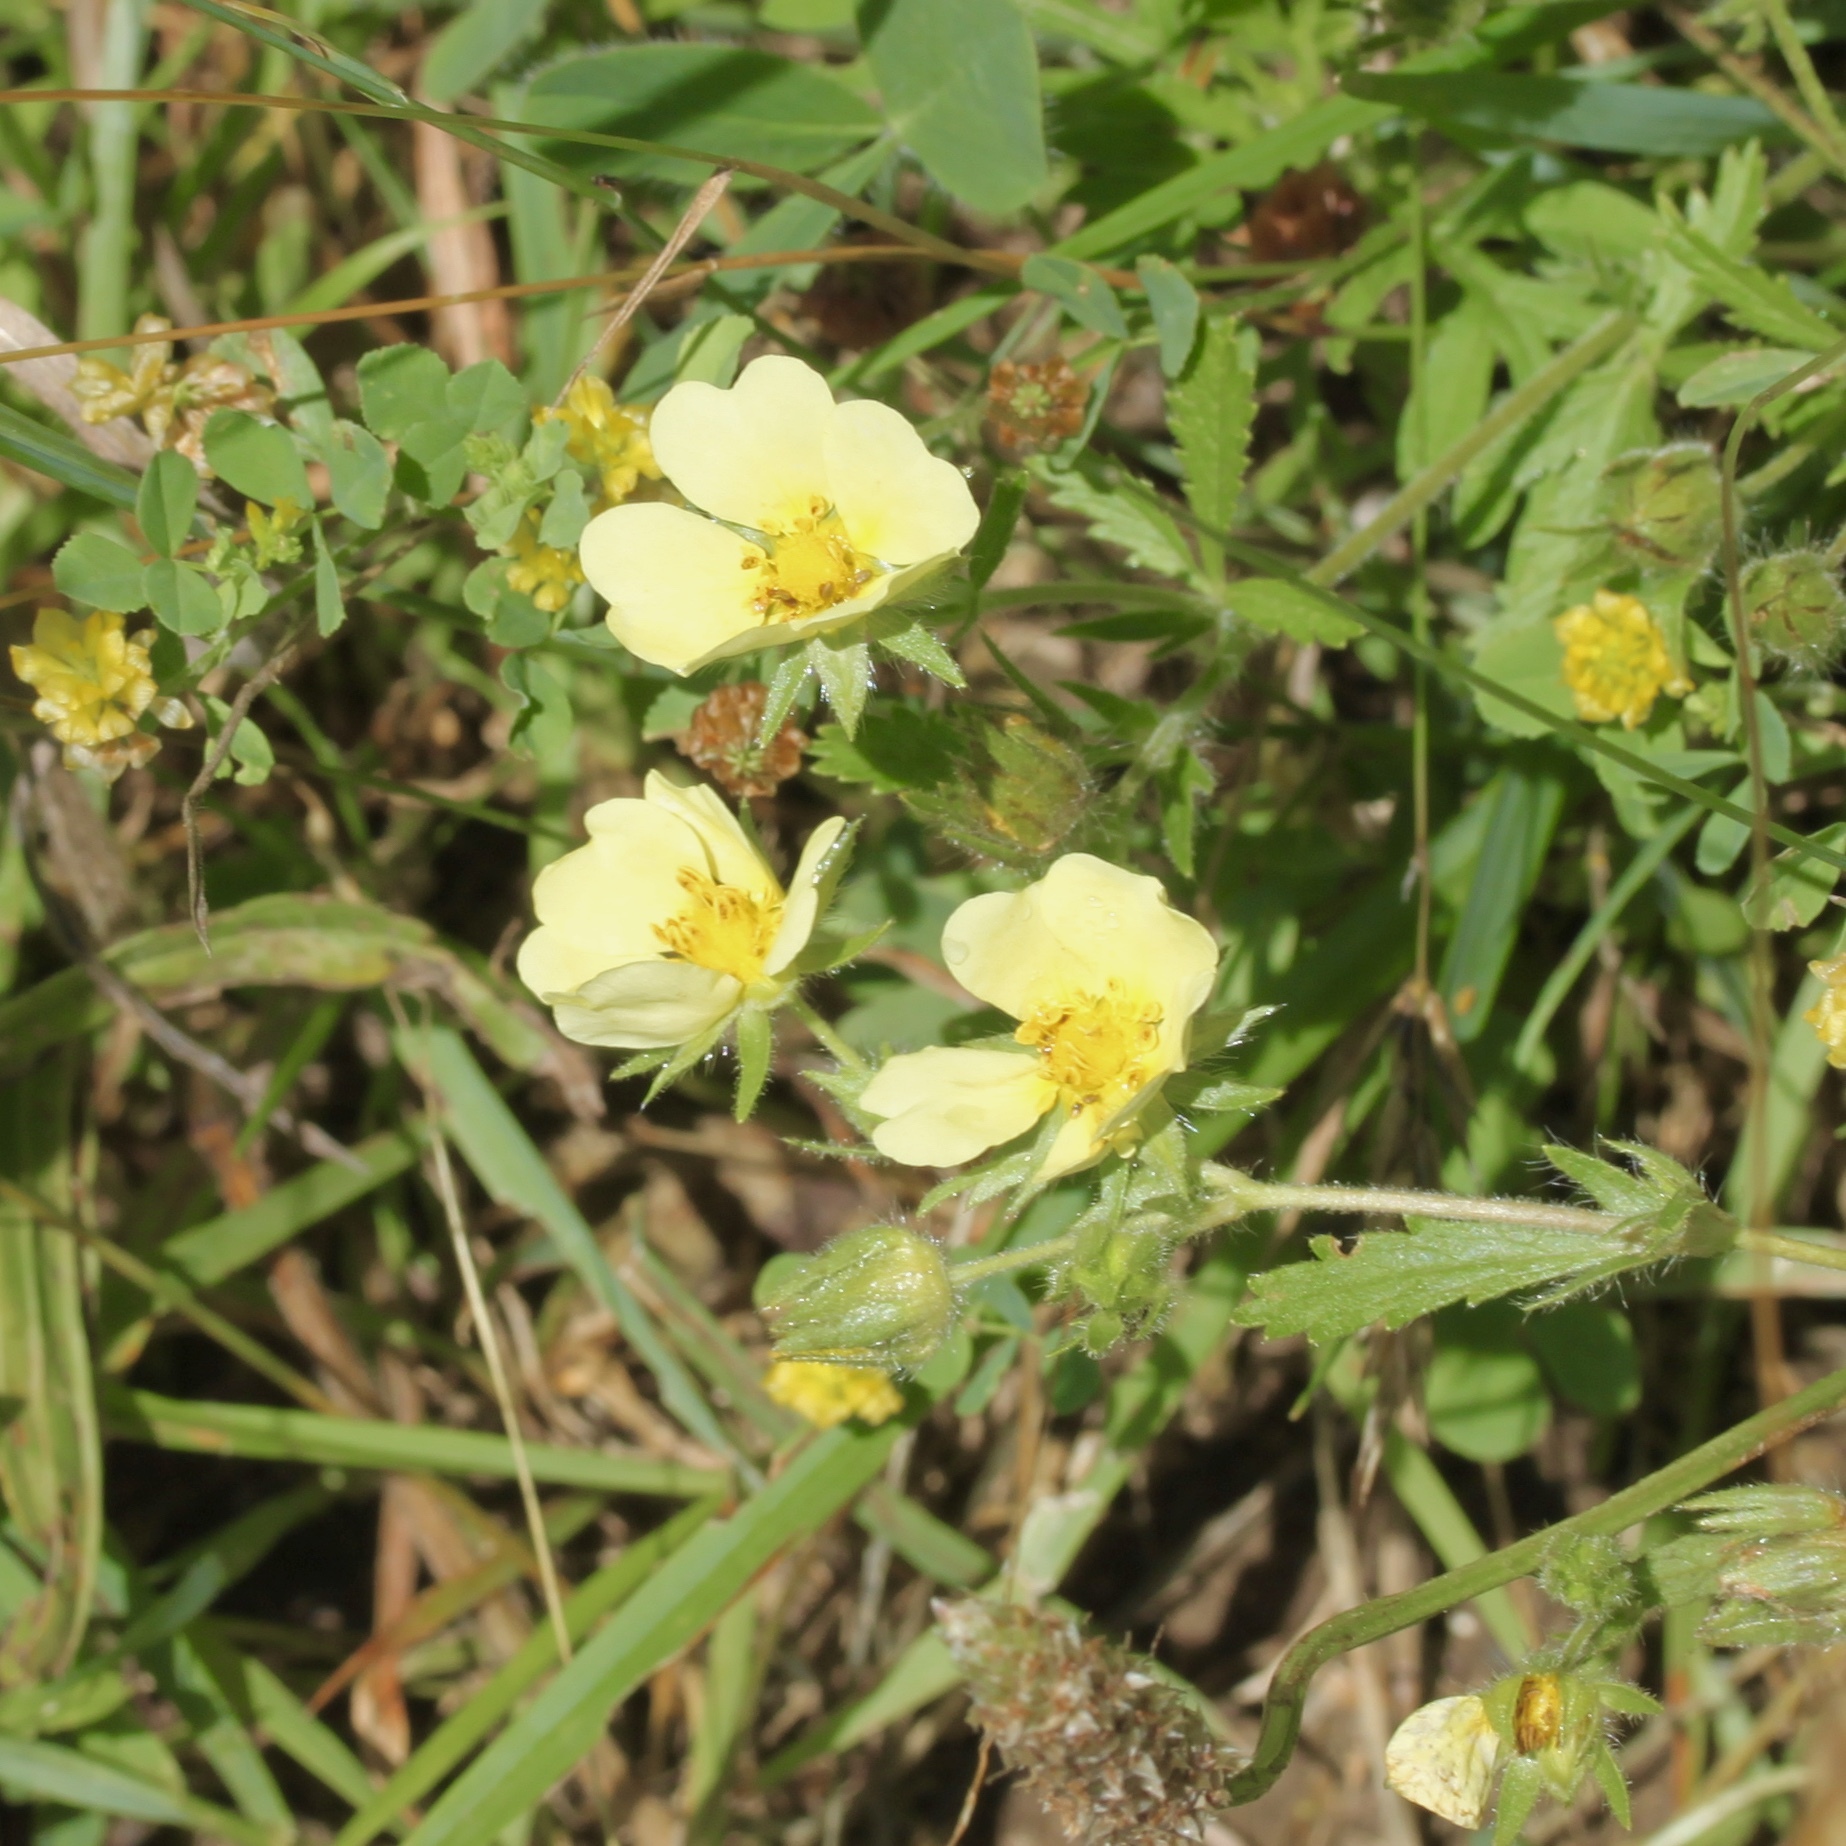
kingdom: Plantae
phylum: Tracheophyta
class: Magnoliopsida
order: Rosales
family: Rosaceae
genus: Potentilla
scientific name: Potentilla recta
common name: Sulphur cinquefoil
